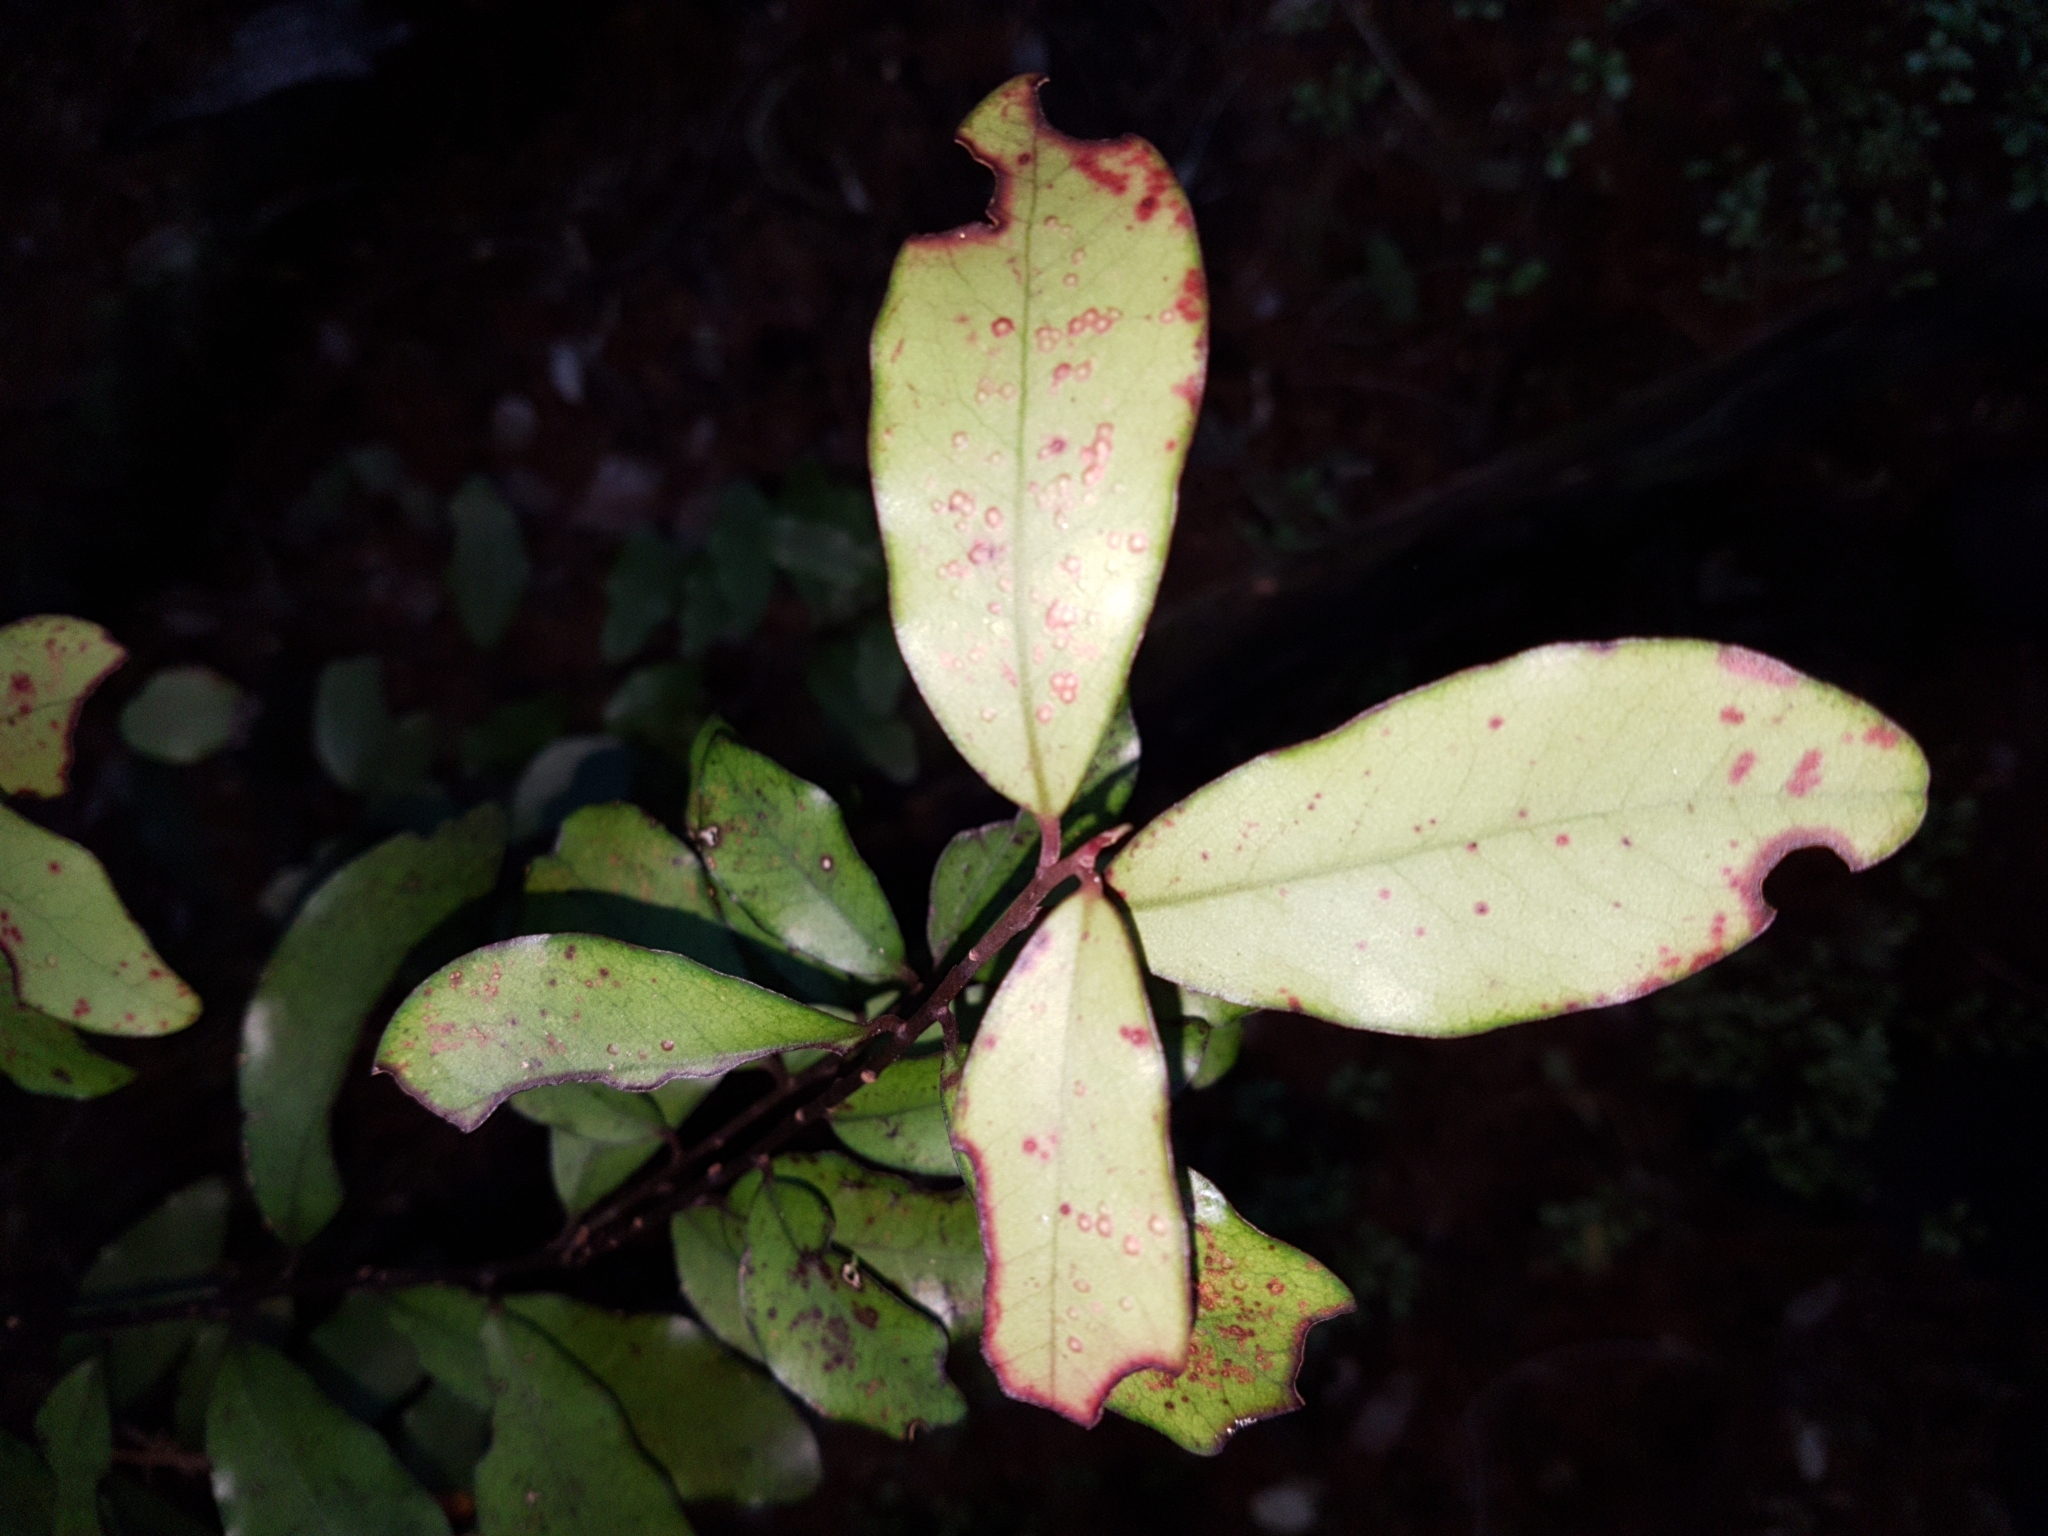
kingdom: Plantae
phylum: Tracheophyta
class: Magnoliopsida
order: Canellales
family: Winteraceae
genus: Pseudowintera
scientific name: Pseudowintera colorata
